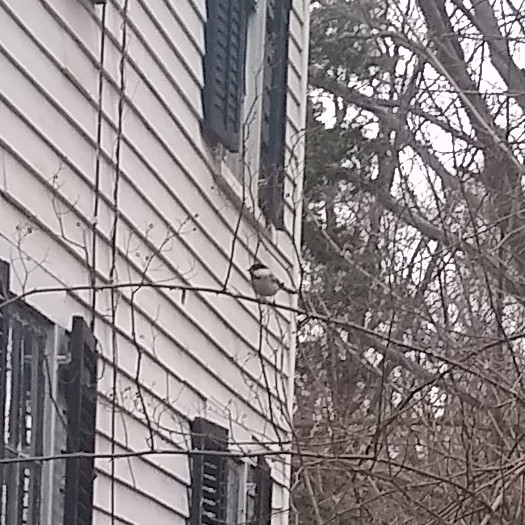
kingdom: Animalia
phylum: Chordata
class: Aves
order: Passeriformes
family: Paridae
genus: Poecile
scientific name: Poecile atricapillus
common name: Black-capped chickadee
